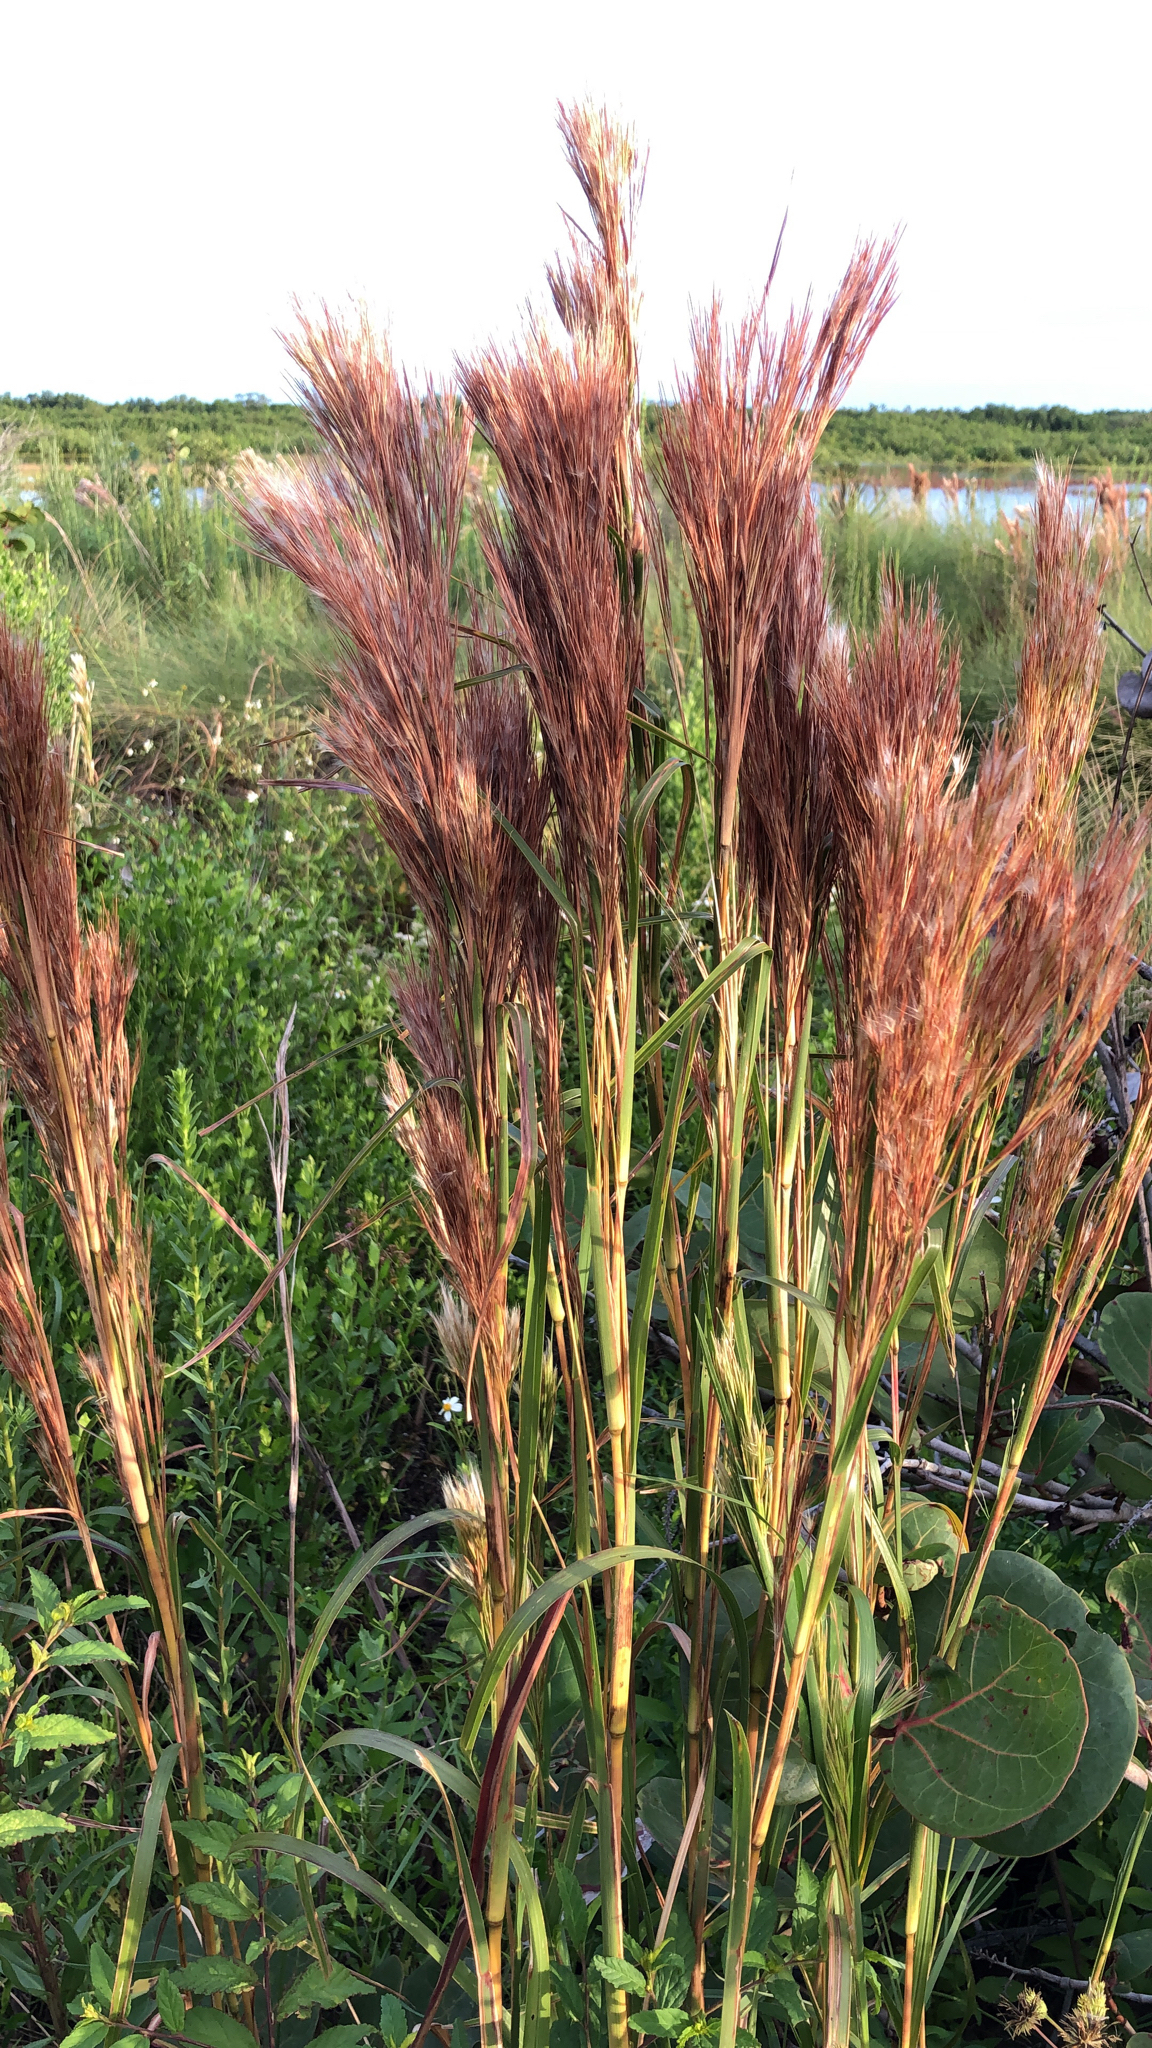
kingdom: Plantae
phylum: Tracheophyta
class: Liliopsida
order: Poales
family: Poaceae
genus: Andropogon
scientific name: Andropogon tenuispatheus
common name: Bushy bluestem
